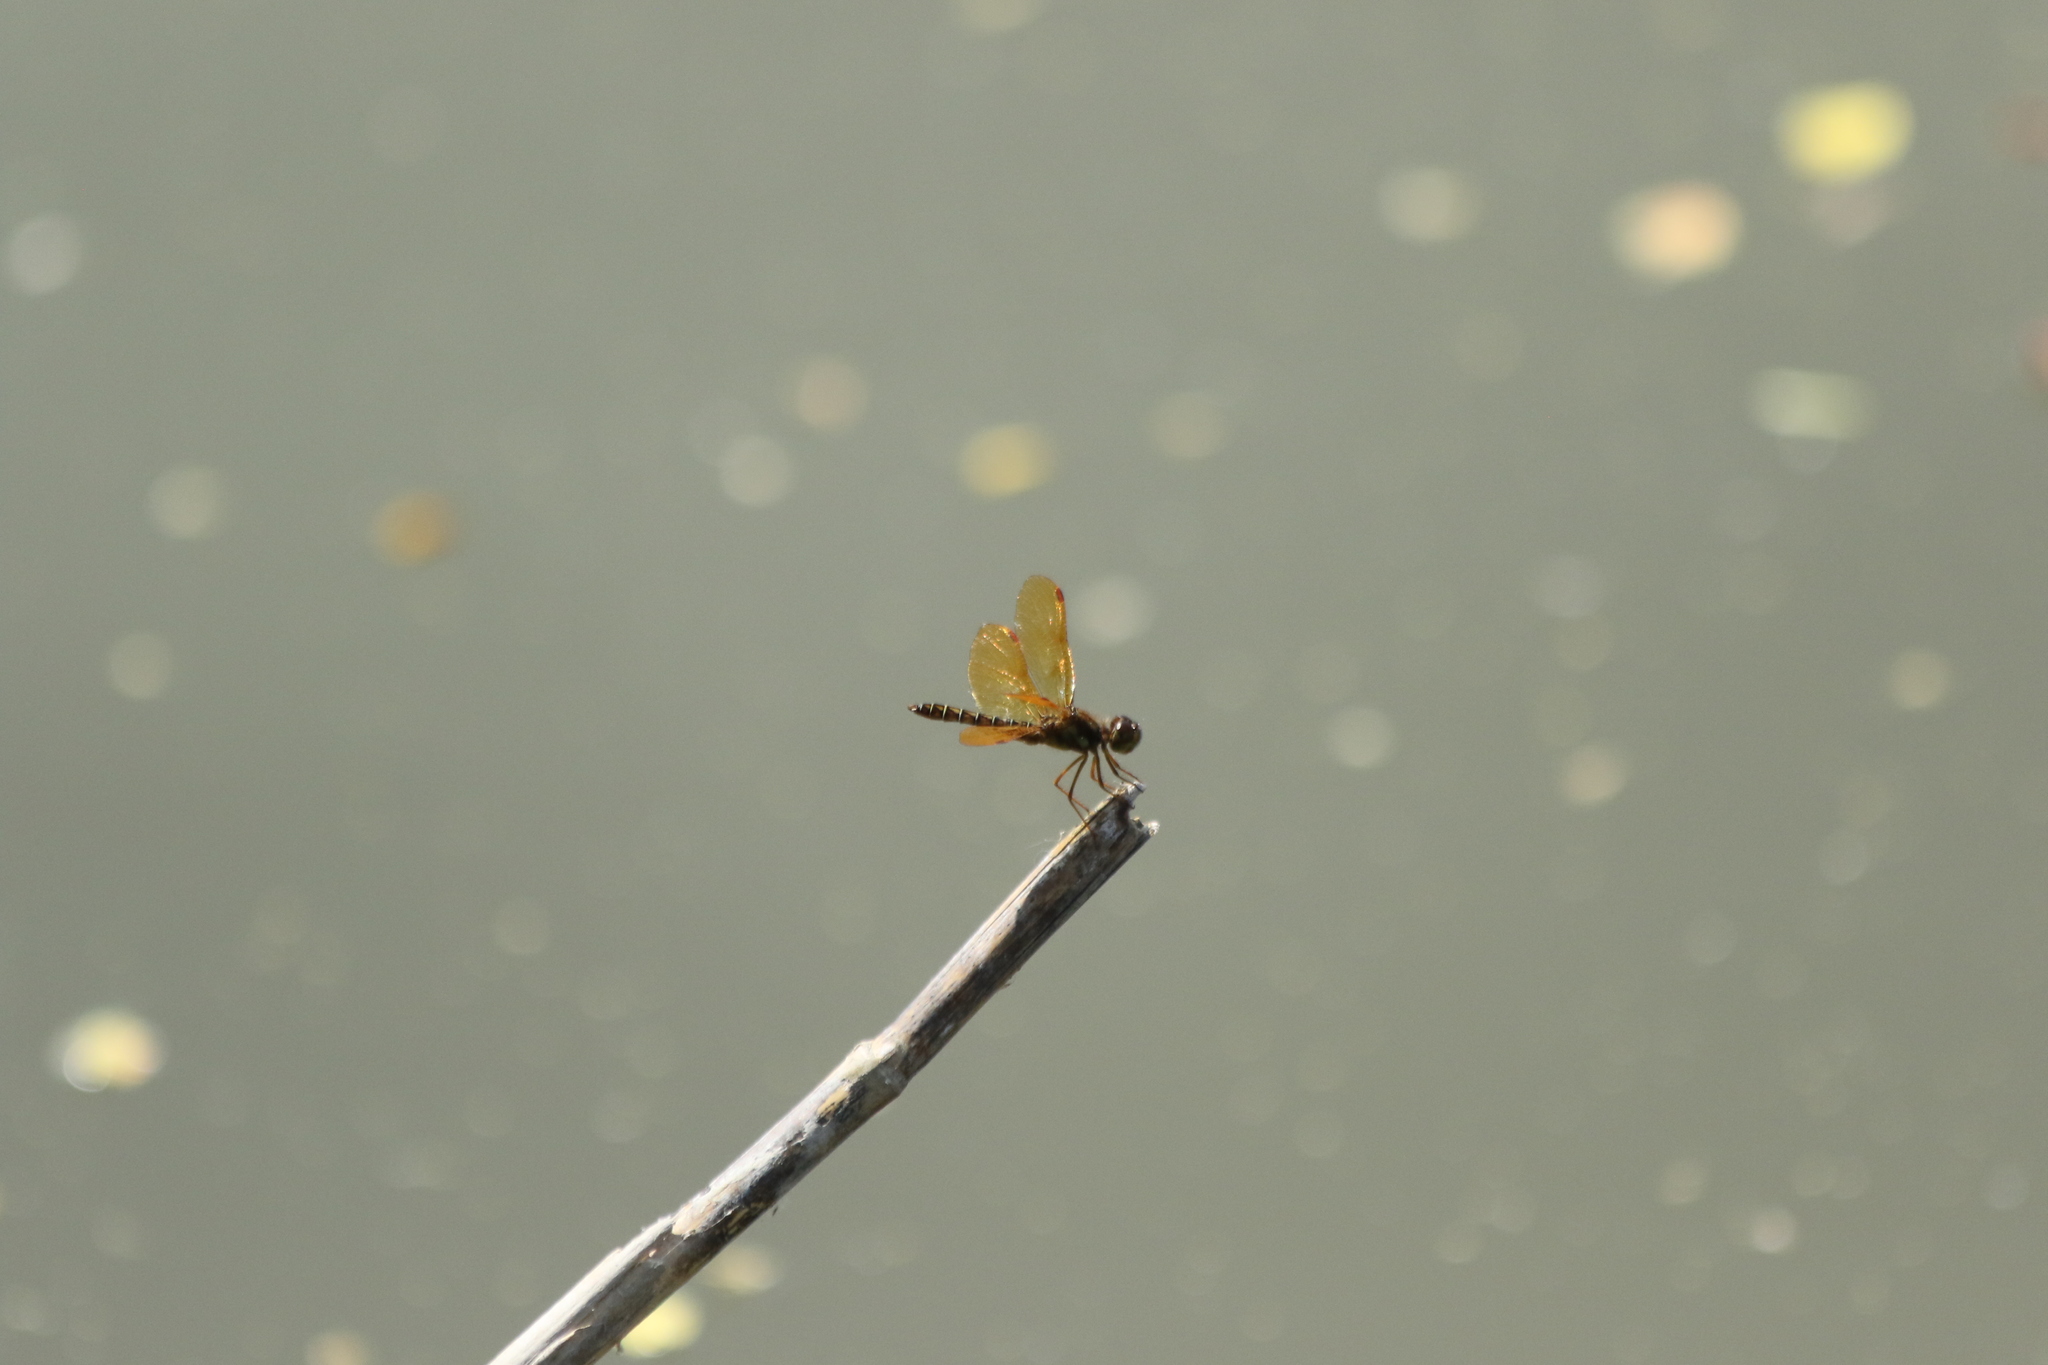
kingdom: Animalia
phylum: Arthropoda
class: Insecta
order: Odonata
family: Libellulidae
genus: Perithemis
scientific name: Perithemis tenera
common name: Eastern amberwing
